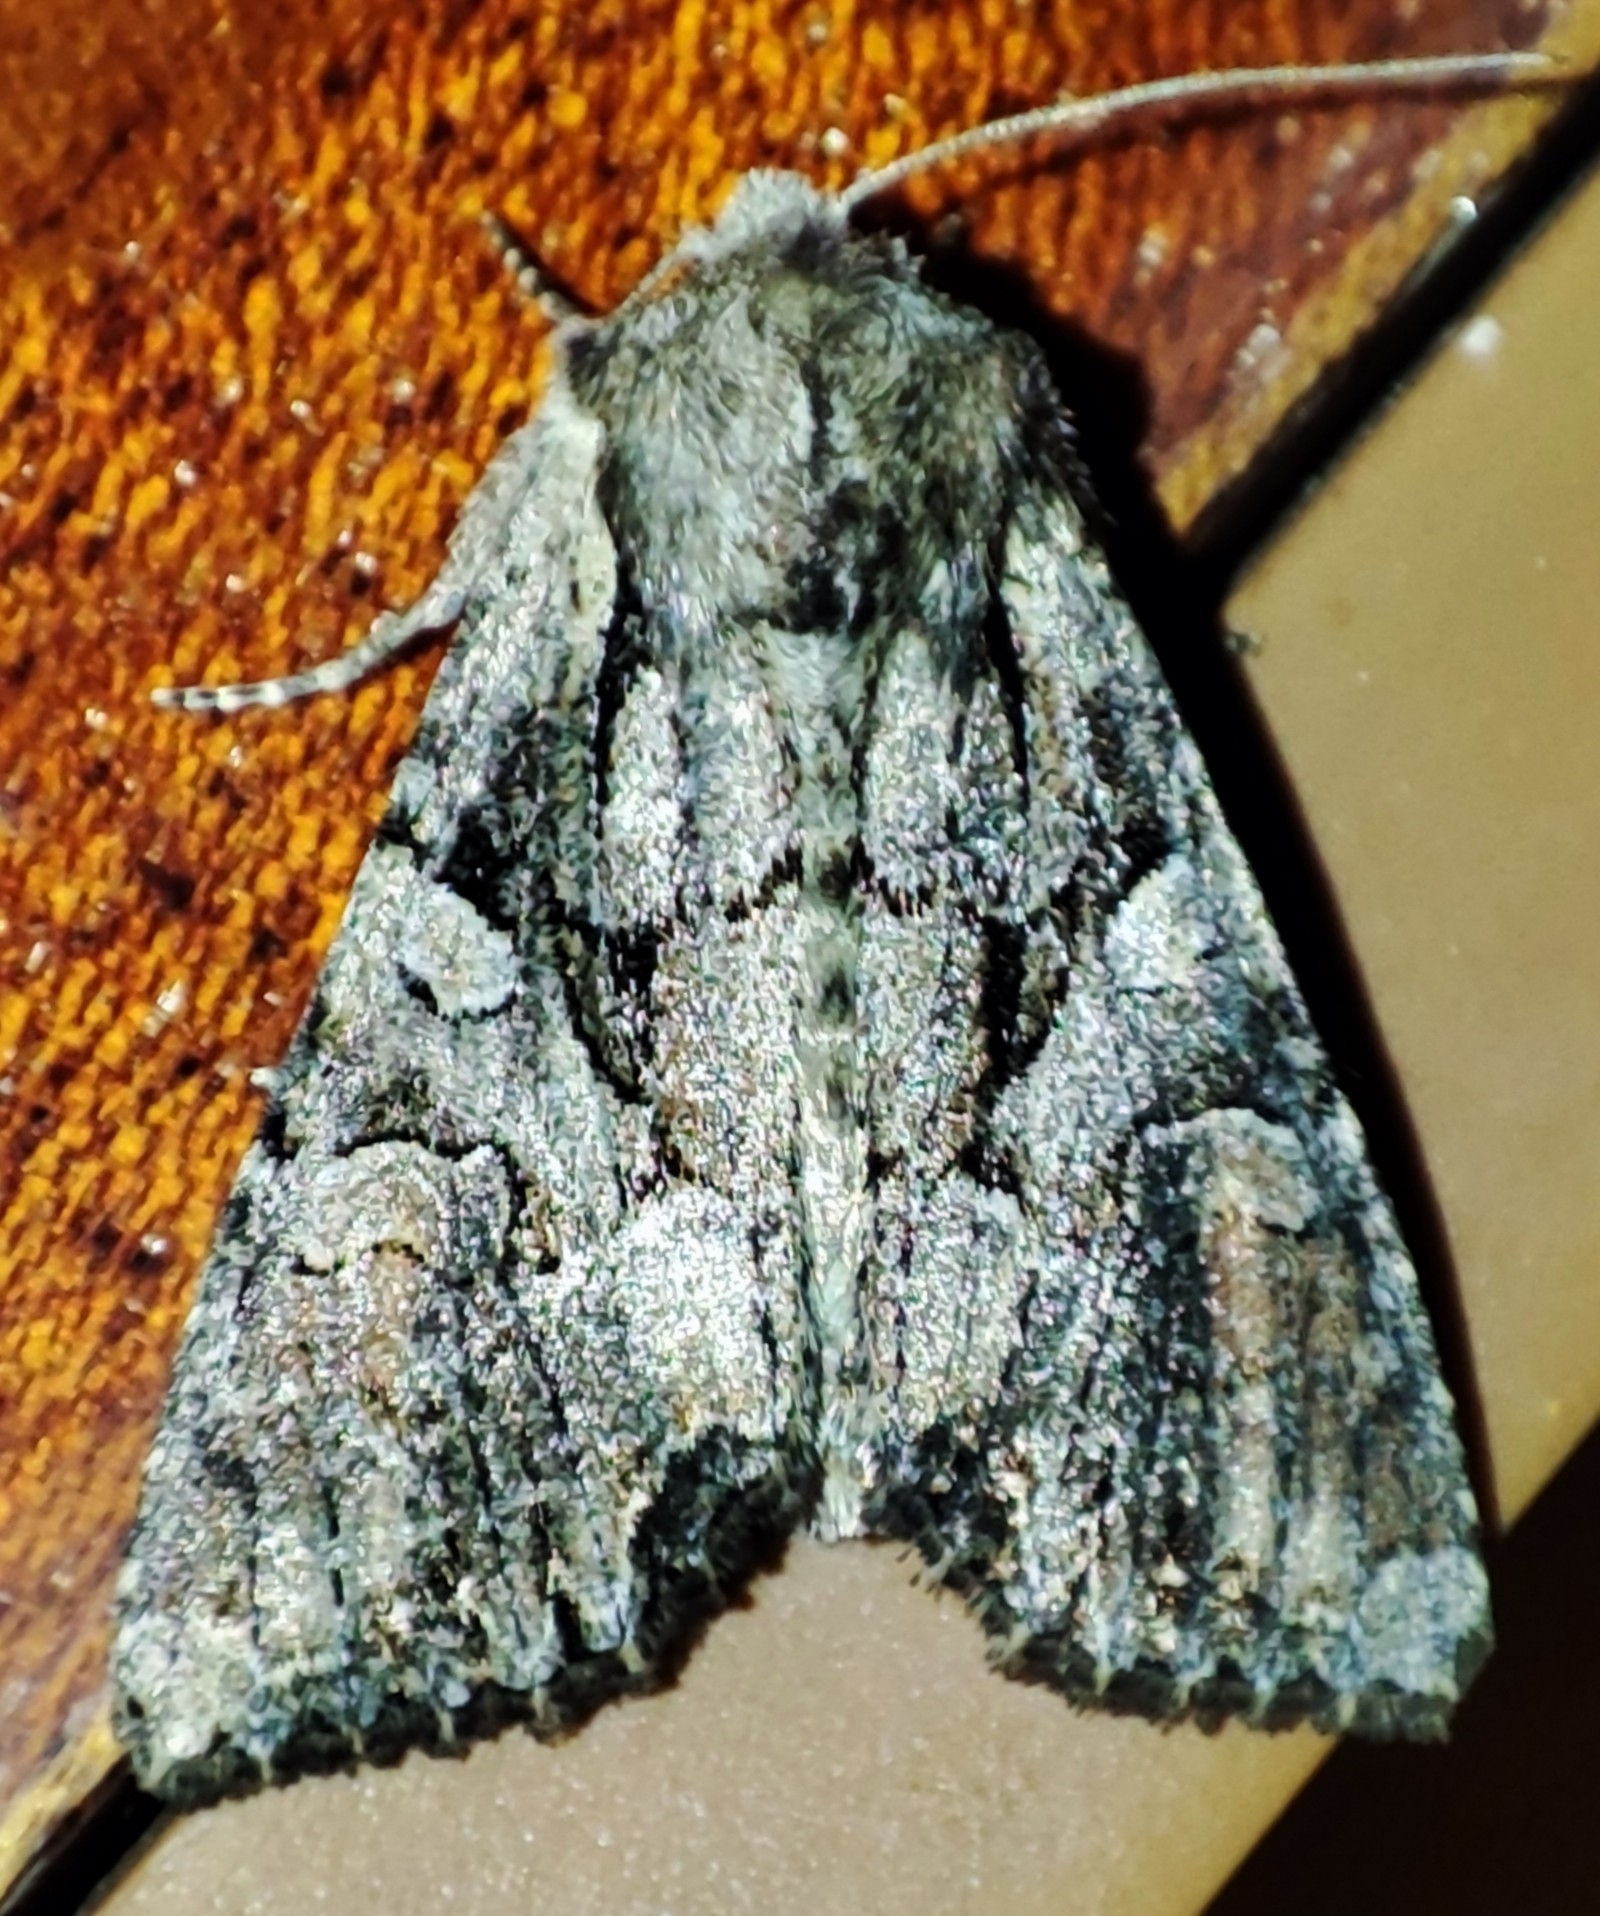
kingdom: Animalia
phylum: Arthropoda
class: Insecta
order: Lepidoptera
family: Noctuidae
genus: Lacanobia
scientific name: Lacanobia contigua
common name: Beautiful brocade
